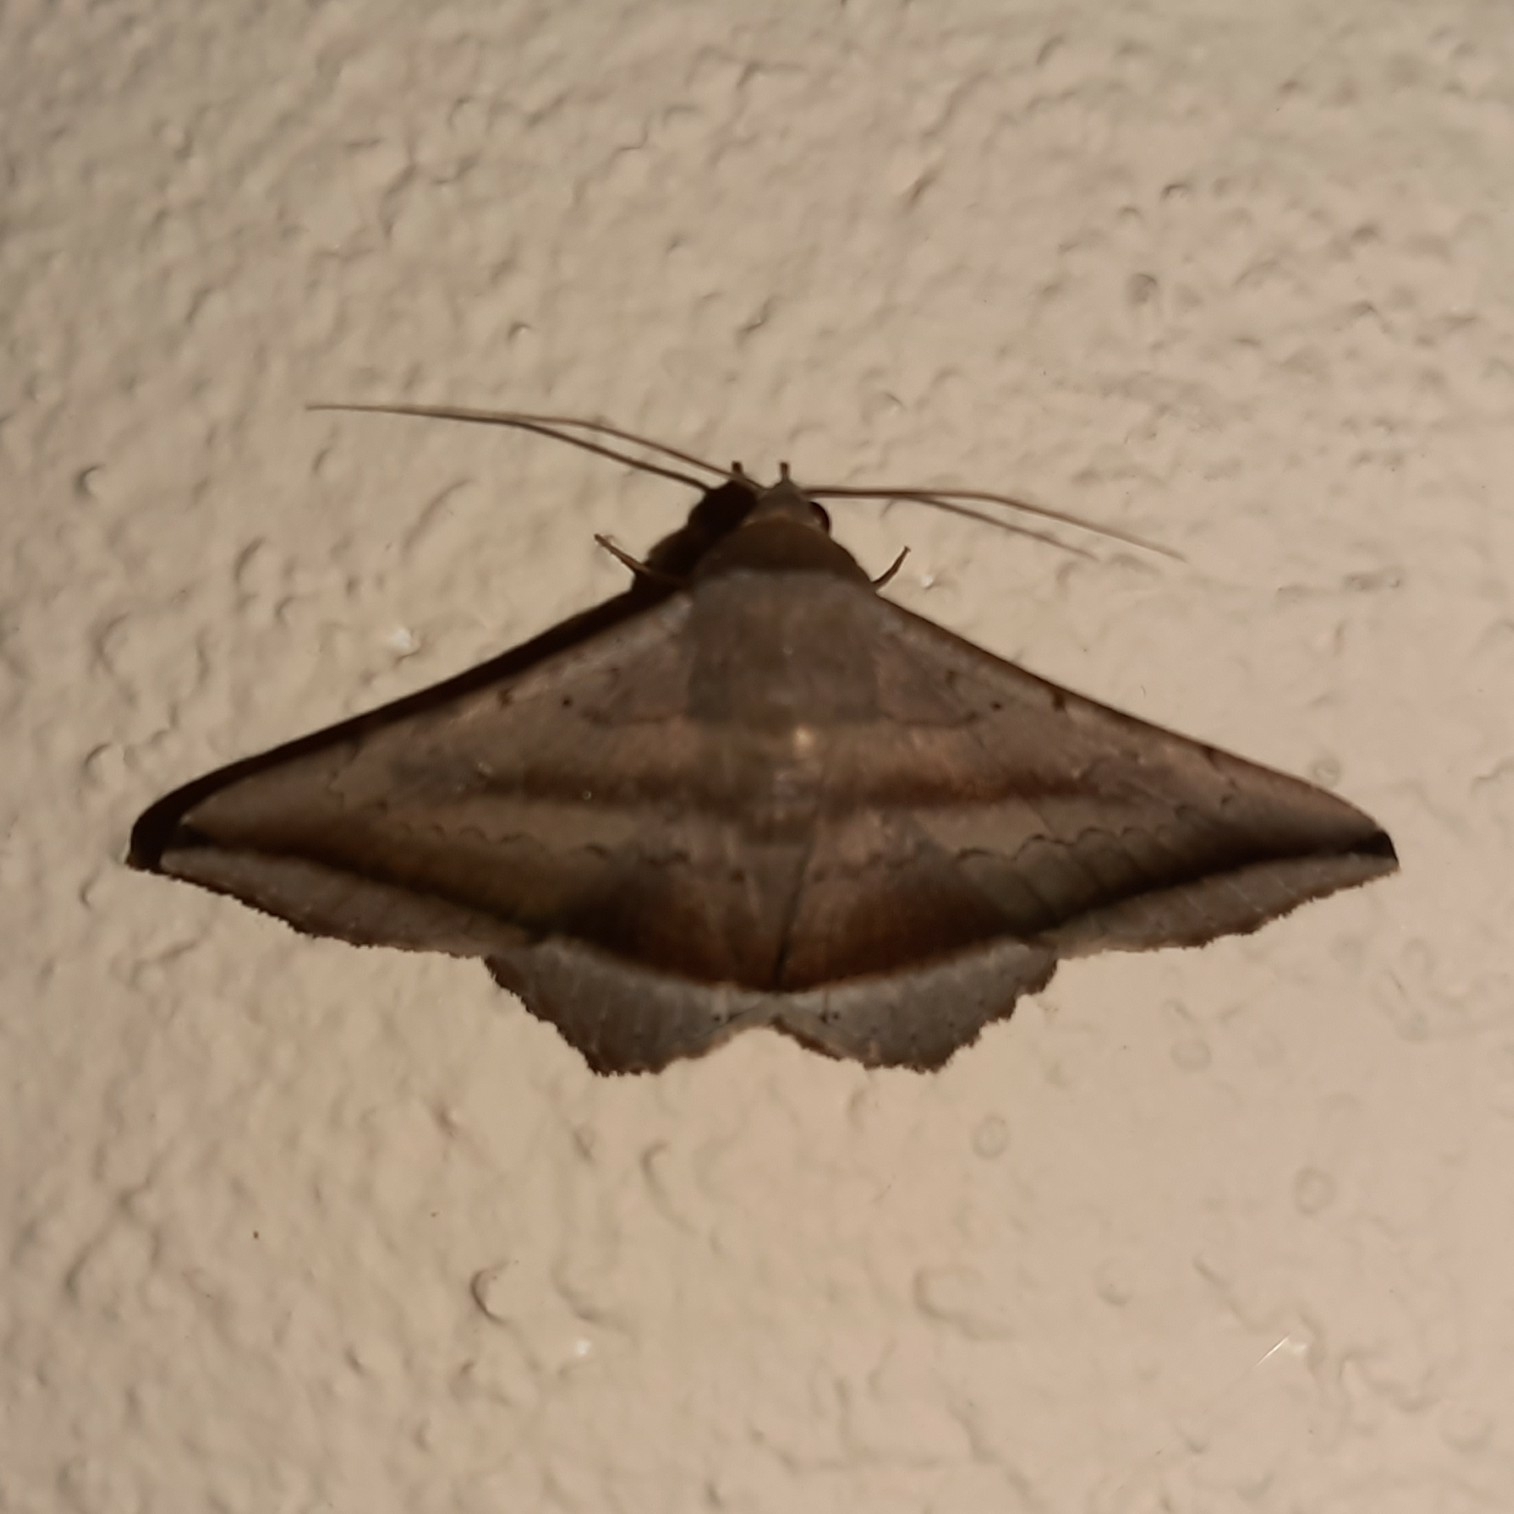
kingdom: Animalia
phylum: Arthropoda
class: Insecta
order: Lepidoptera
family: Erebidae
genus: Lesmone
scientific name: Lesmone formularis
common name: Lesmone moth
